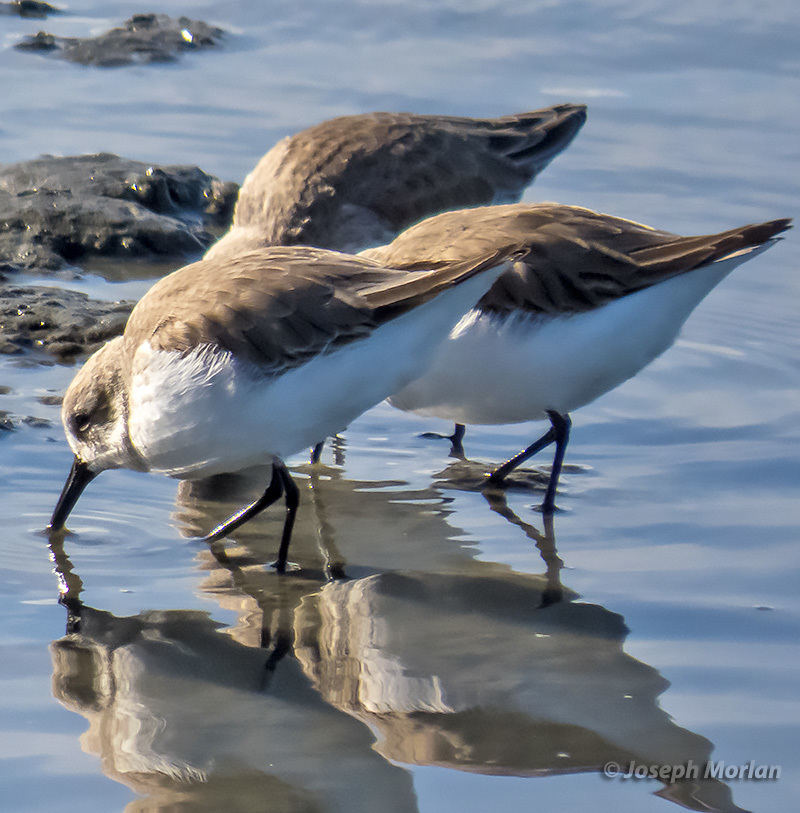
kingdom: Animalia
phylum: Chordata
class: Aves
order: Charadriiformes
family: Scolopacidae
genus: Calidris
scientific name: Calidris mauri
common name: Western sandpiper
